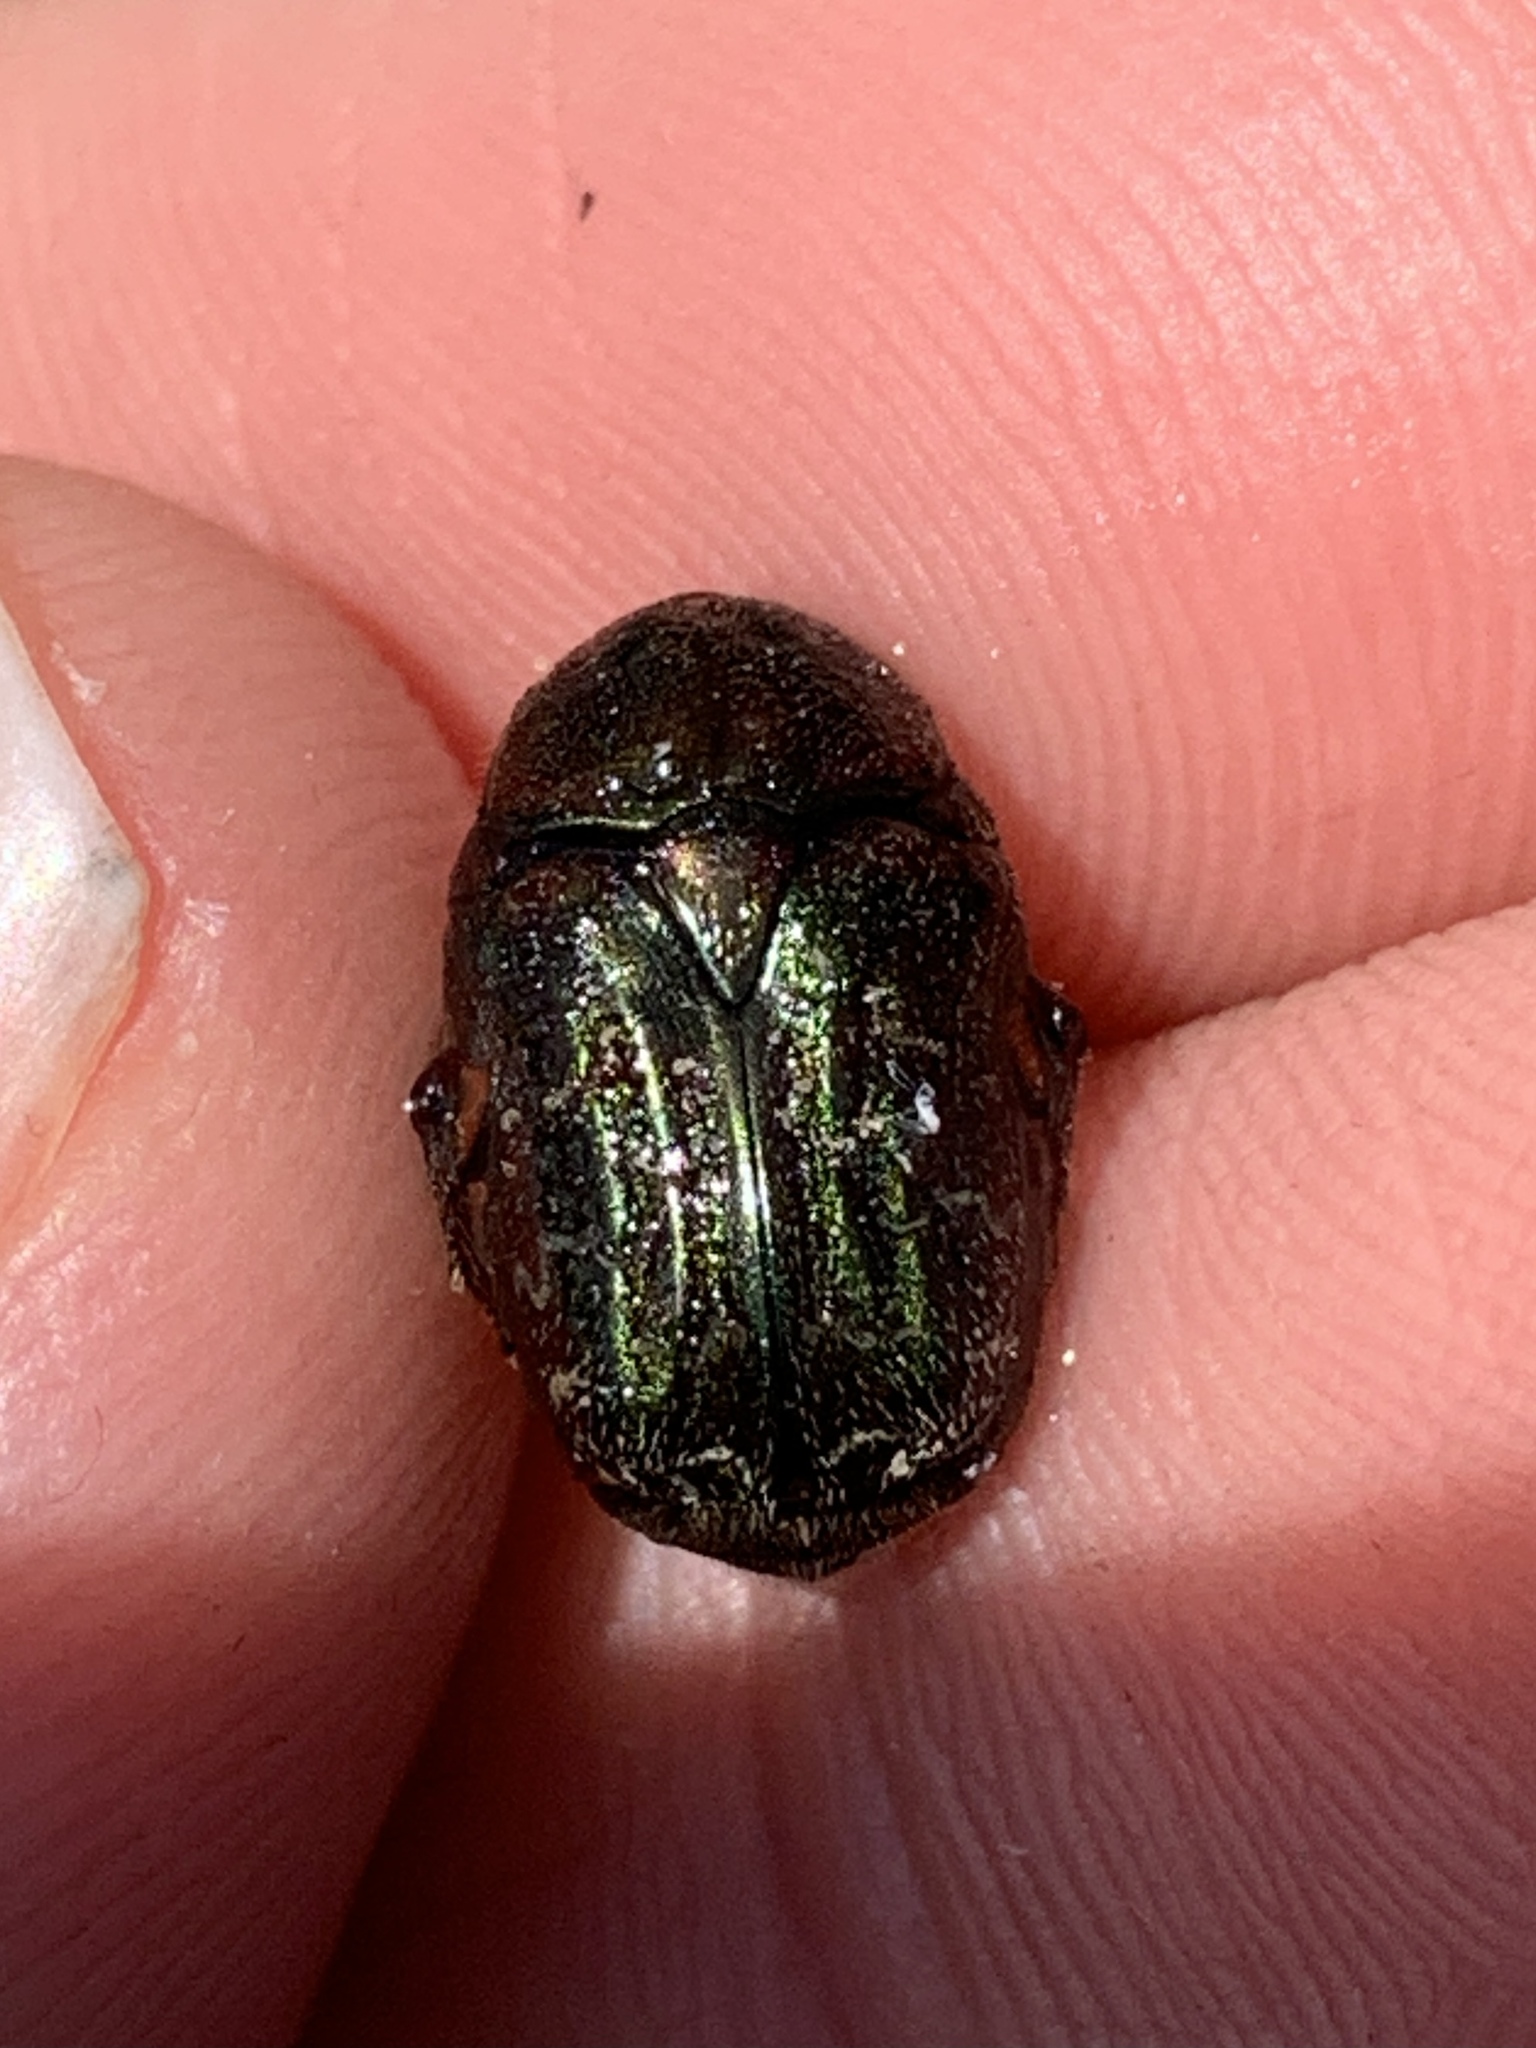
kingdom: Animalia
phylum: Arthropoda
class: Insecta
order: Coleoptera
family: Scarabaeidae
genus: Euphoria
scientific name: Euphoria sepulcralis
